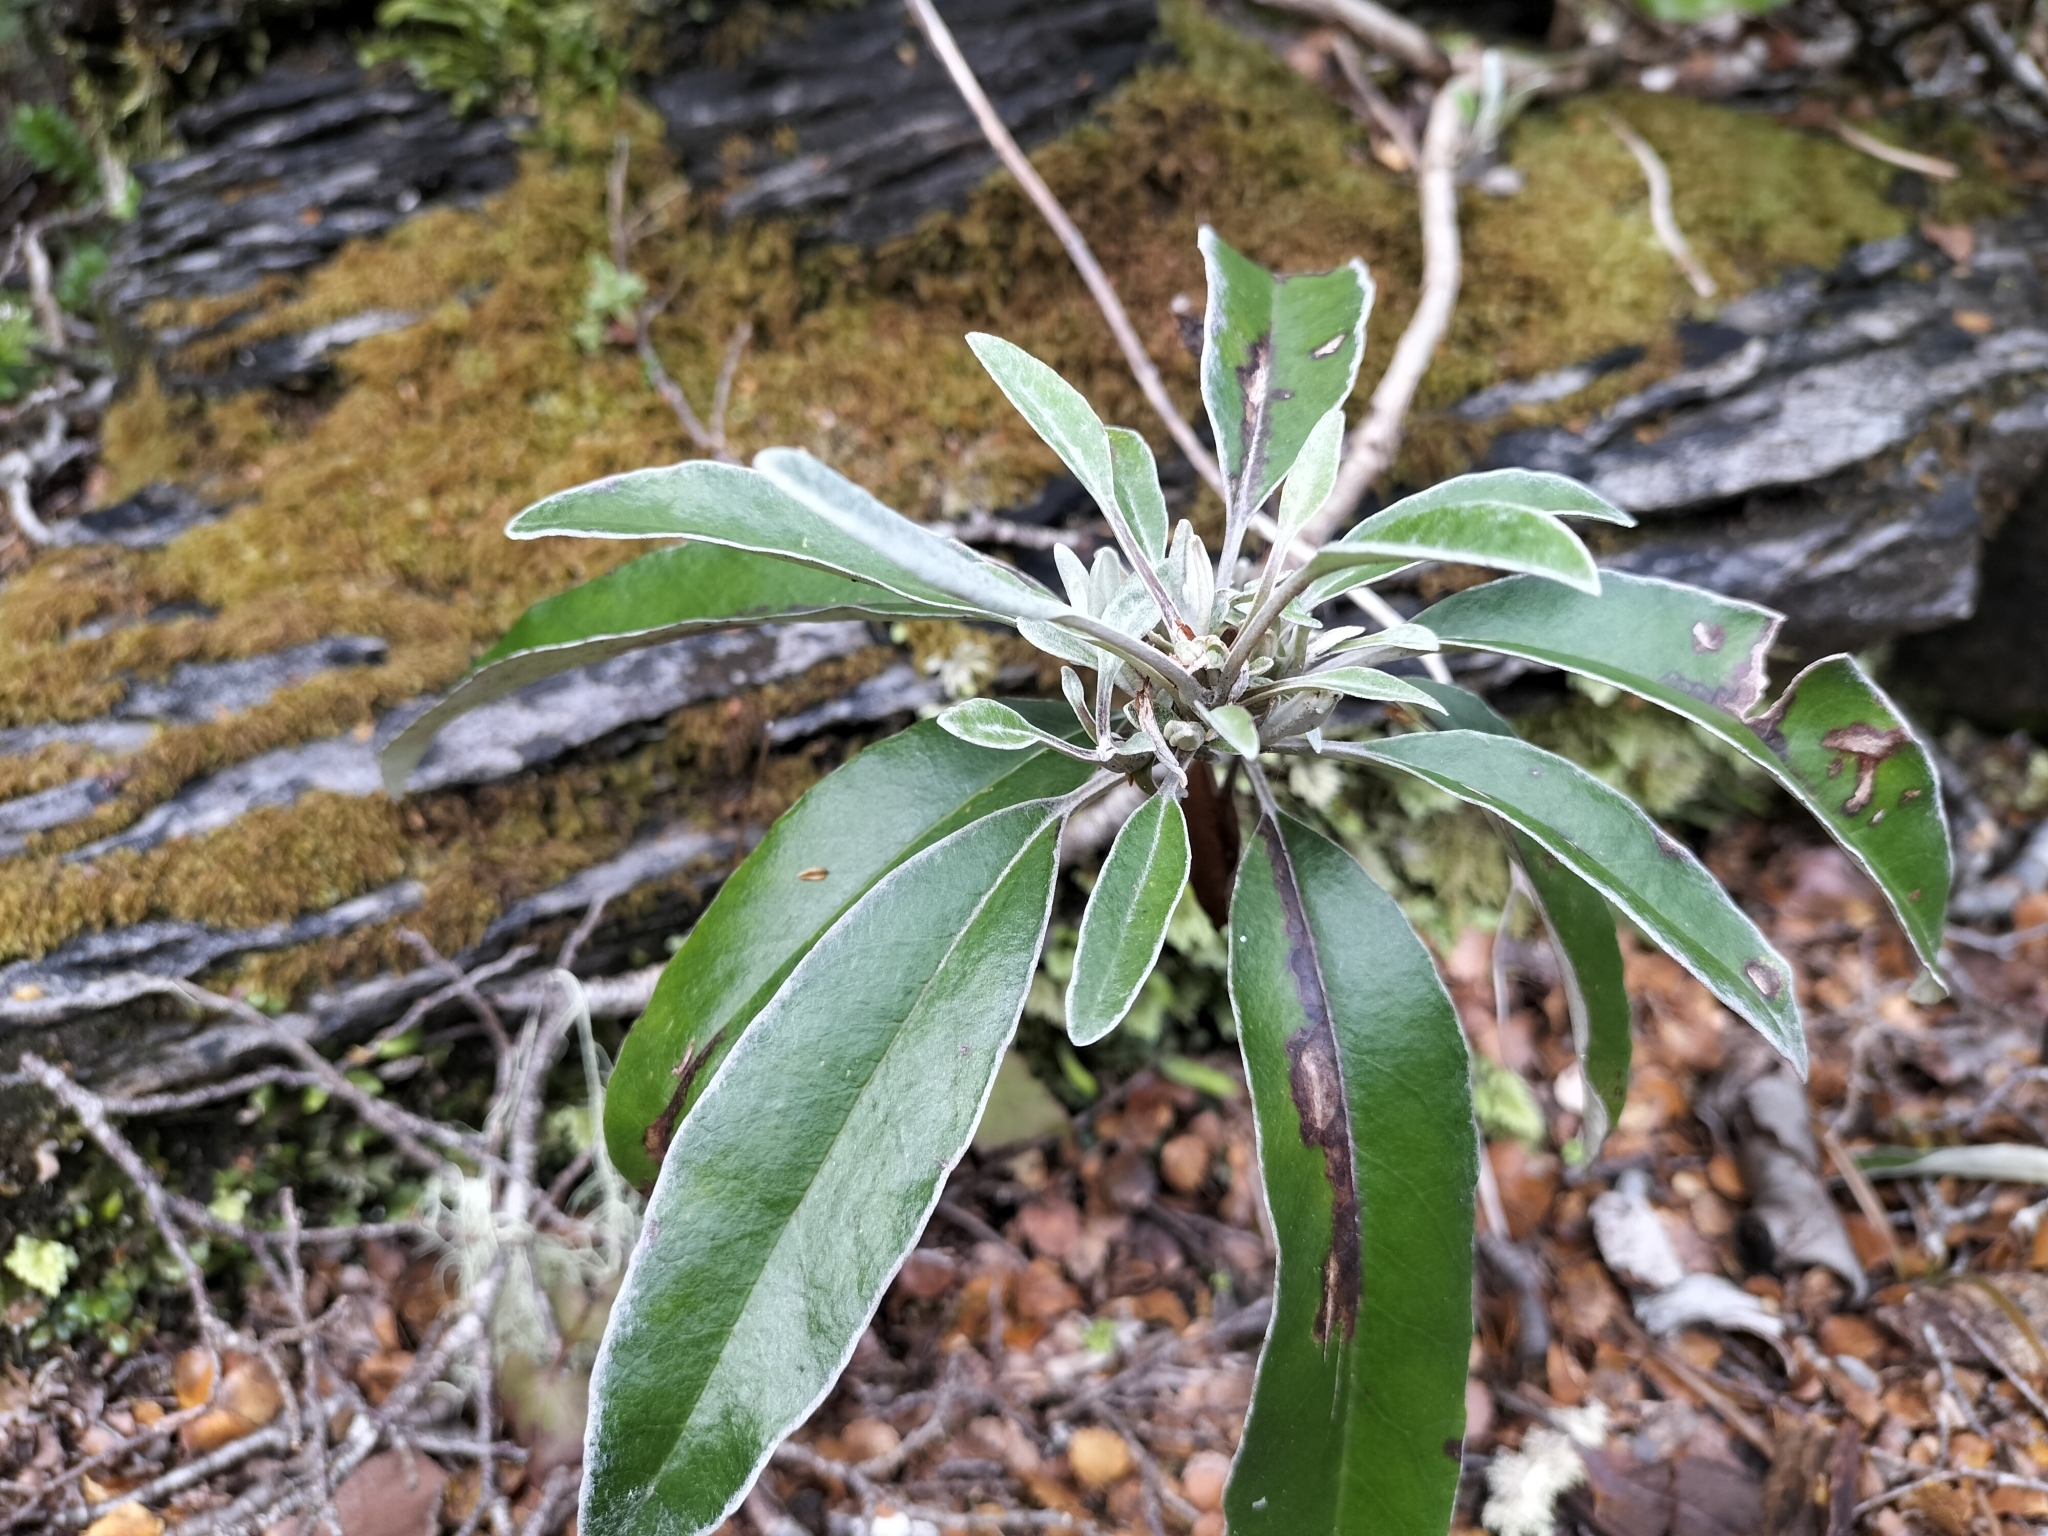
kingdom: Plantae
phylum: Tracheophyta
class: Magnoliopsida
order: Asterales
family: Asteraceae
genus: Brachyglottis
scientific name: Brachyglottis laxifolia
